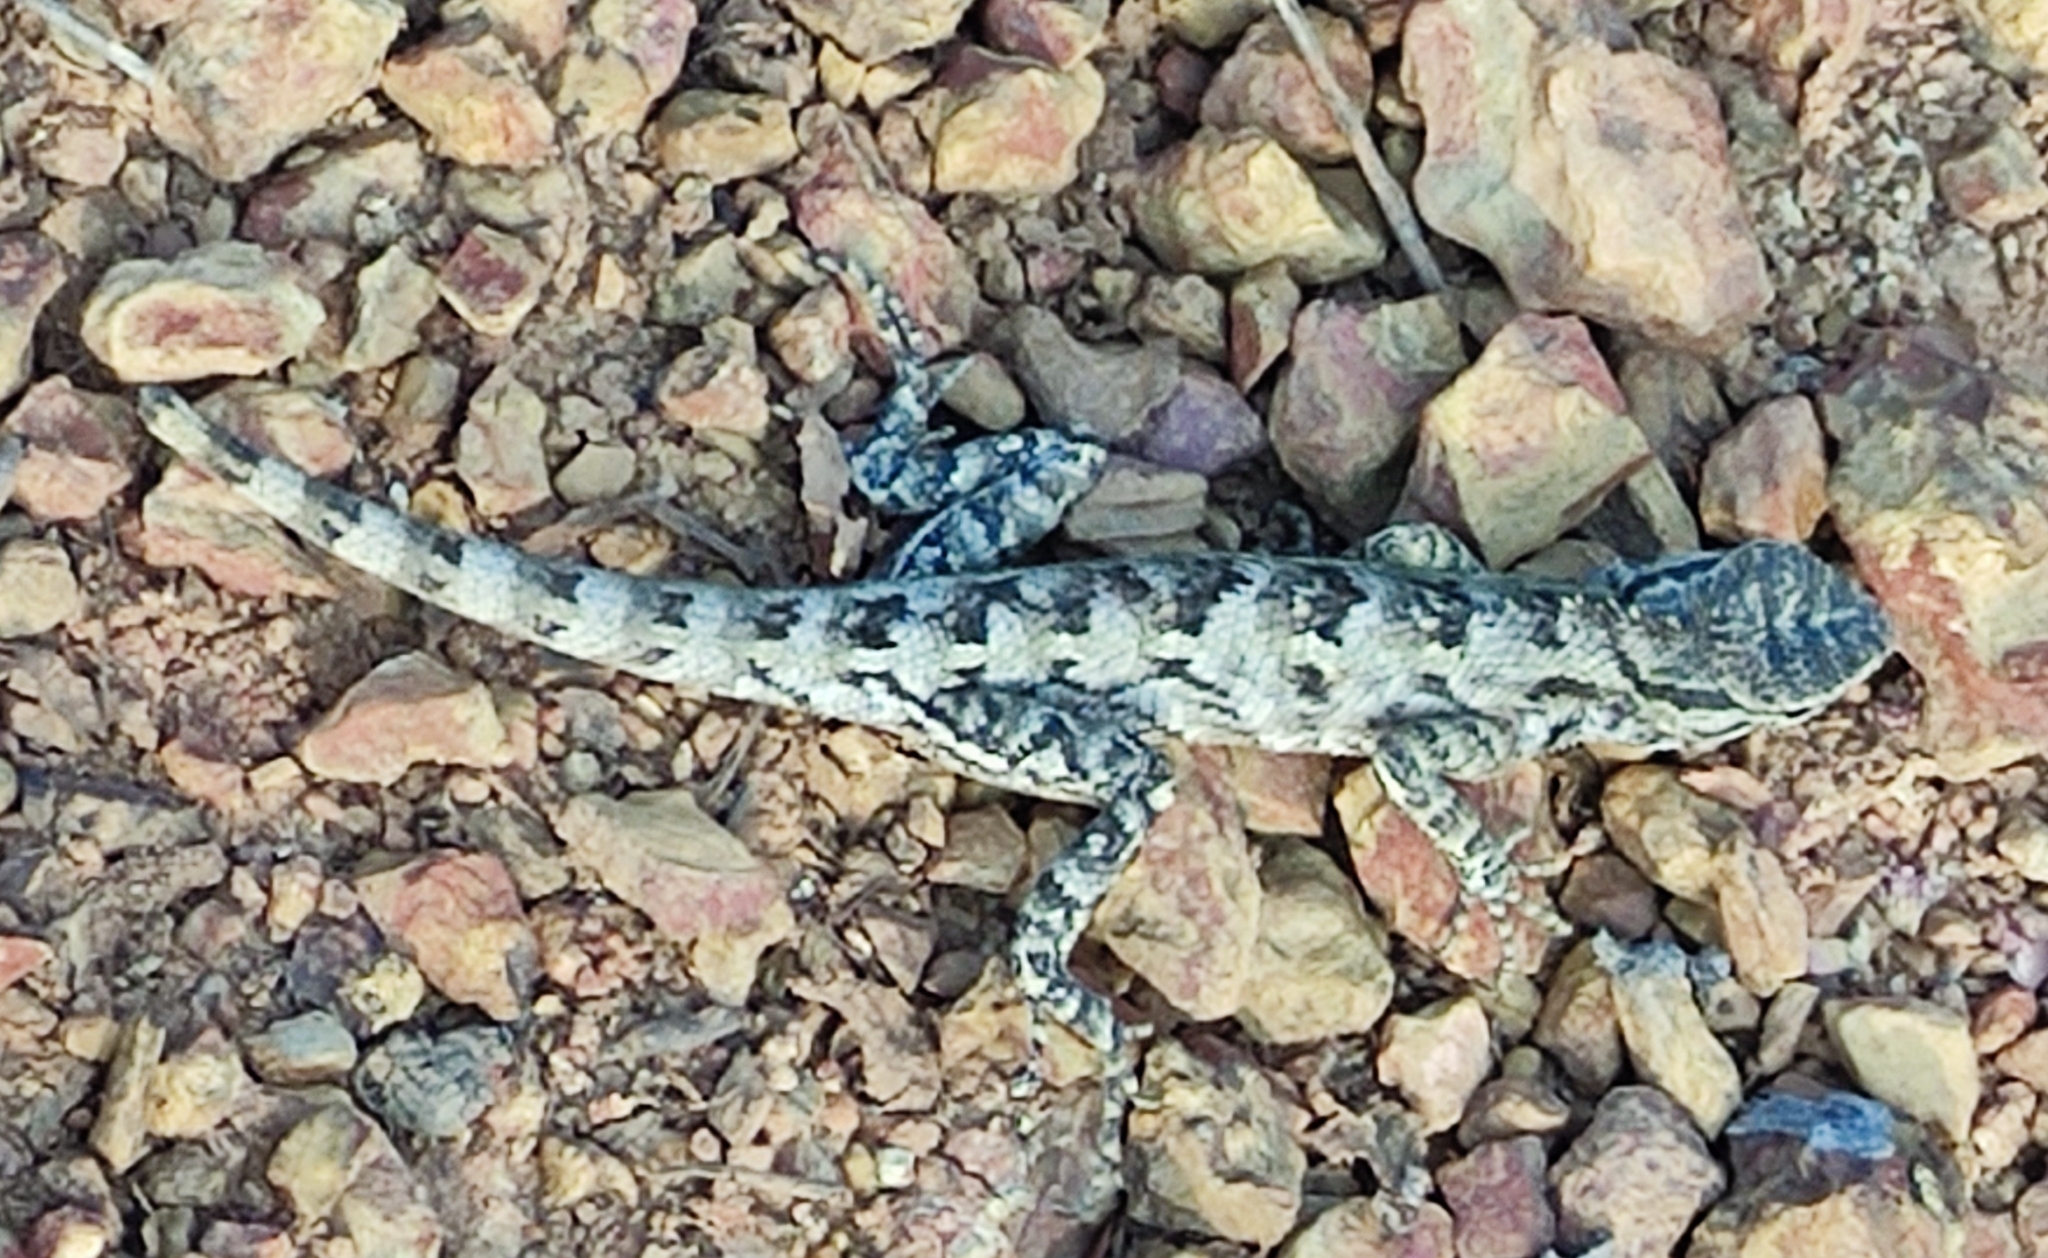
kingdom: Animalia
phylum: Chordata
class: Squamata
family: Agamidae
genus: Calotes
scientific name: Calotes versicolor
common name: Oriental garden lizard
